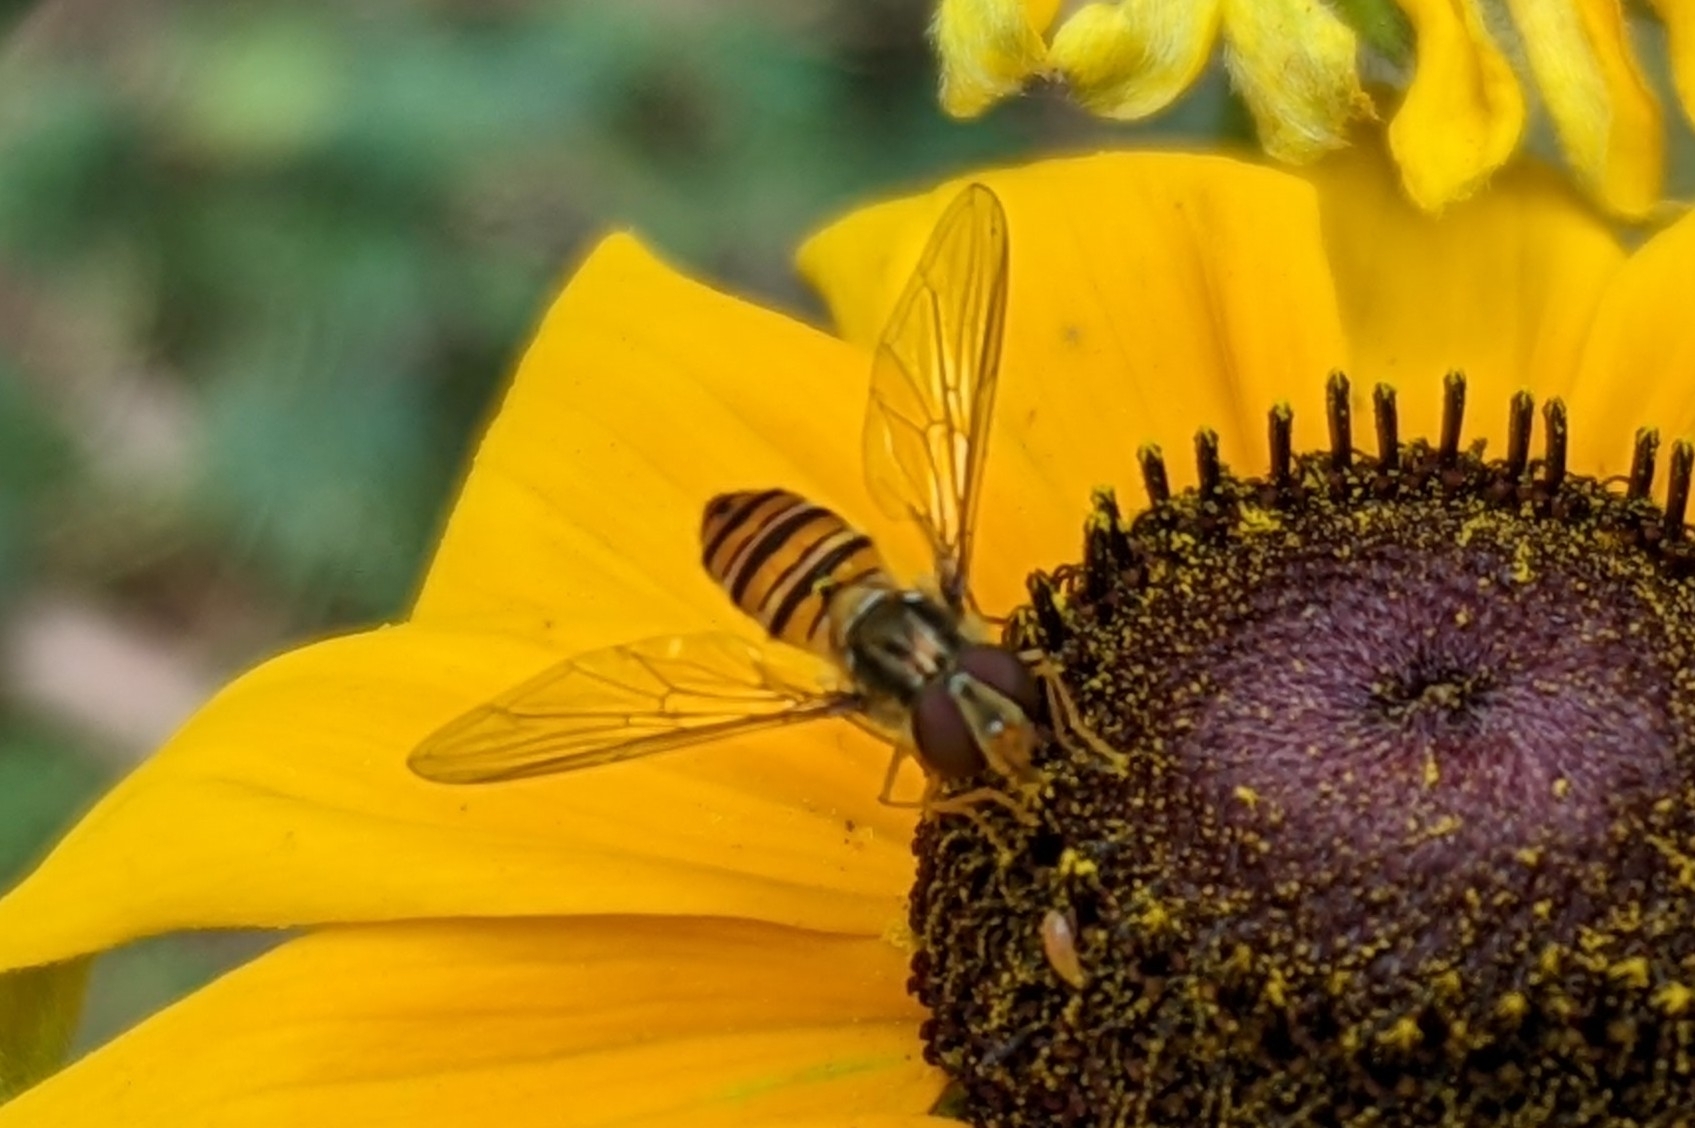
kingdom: Animalia
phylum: Arthropoda
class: Insecta
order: Diptera
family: Syrphidae
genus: Episyrphus
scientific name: Episyrphus balteatus
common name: Marmalade hoverfly
